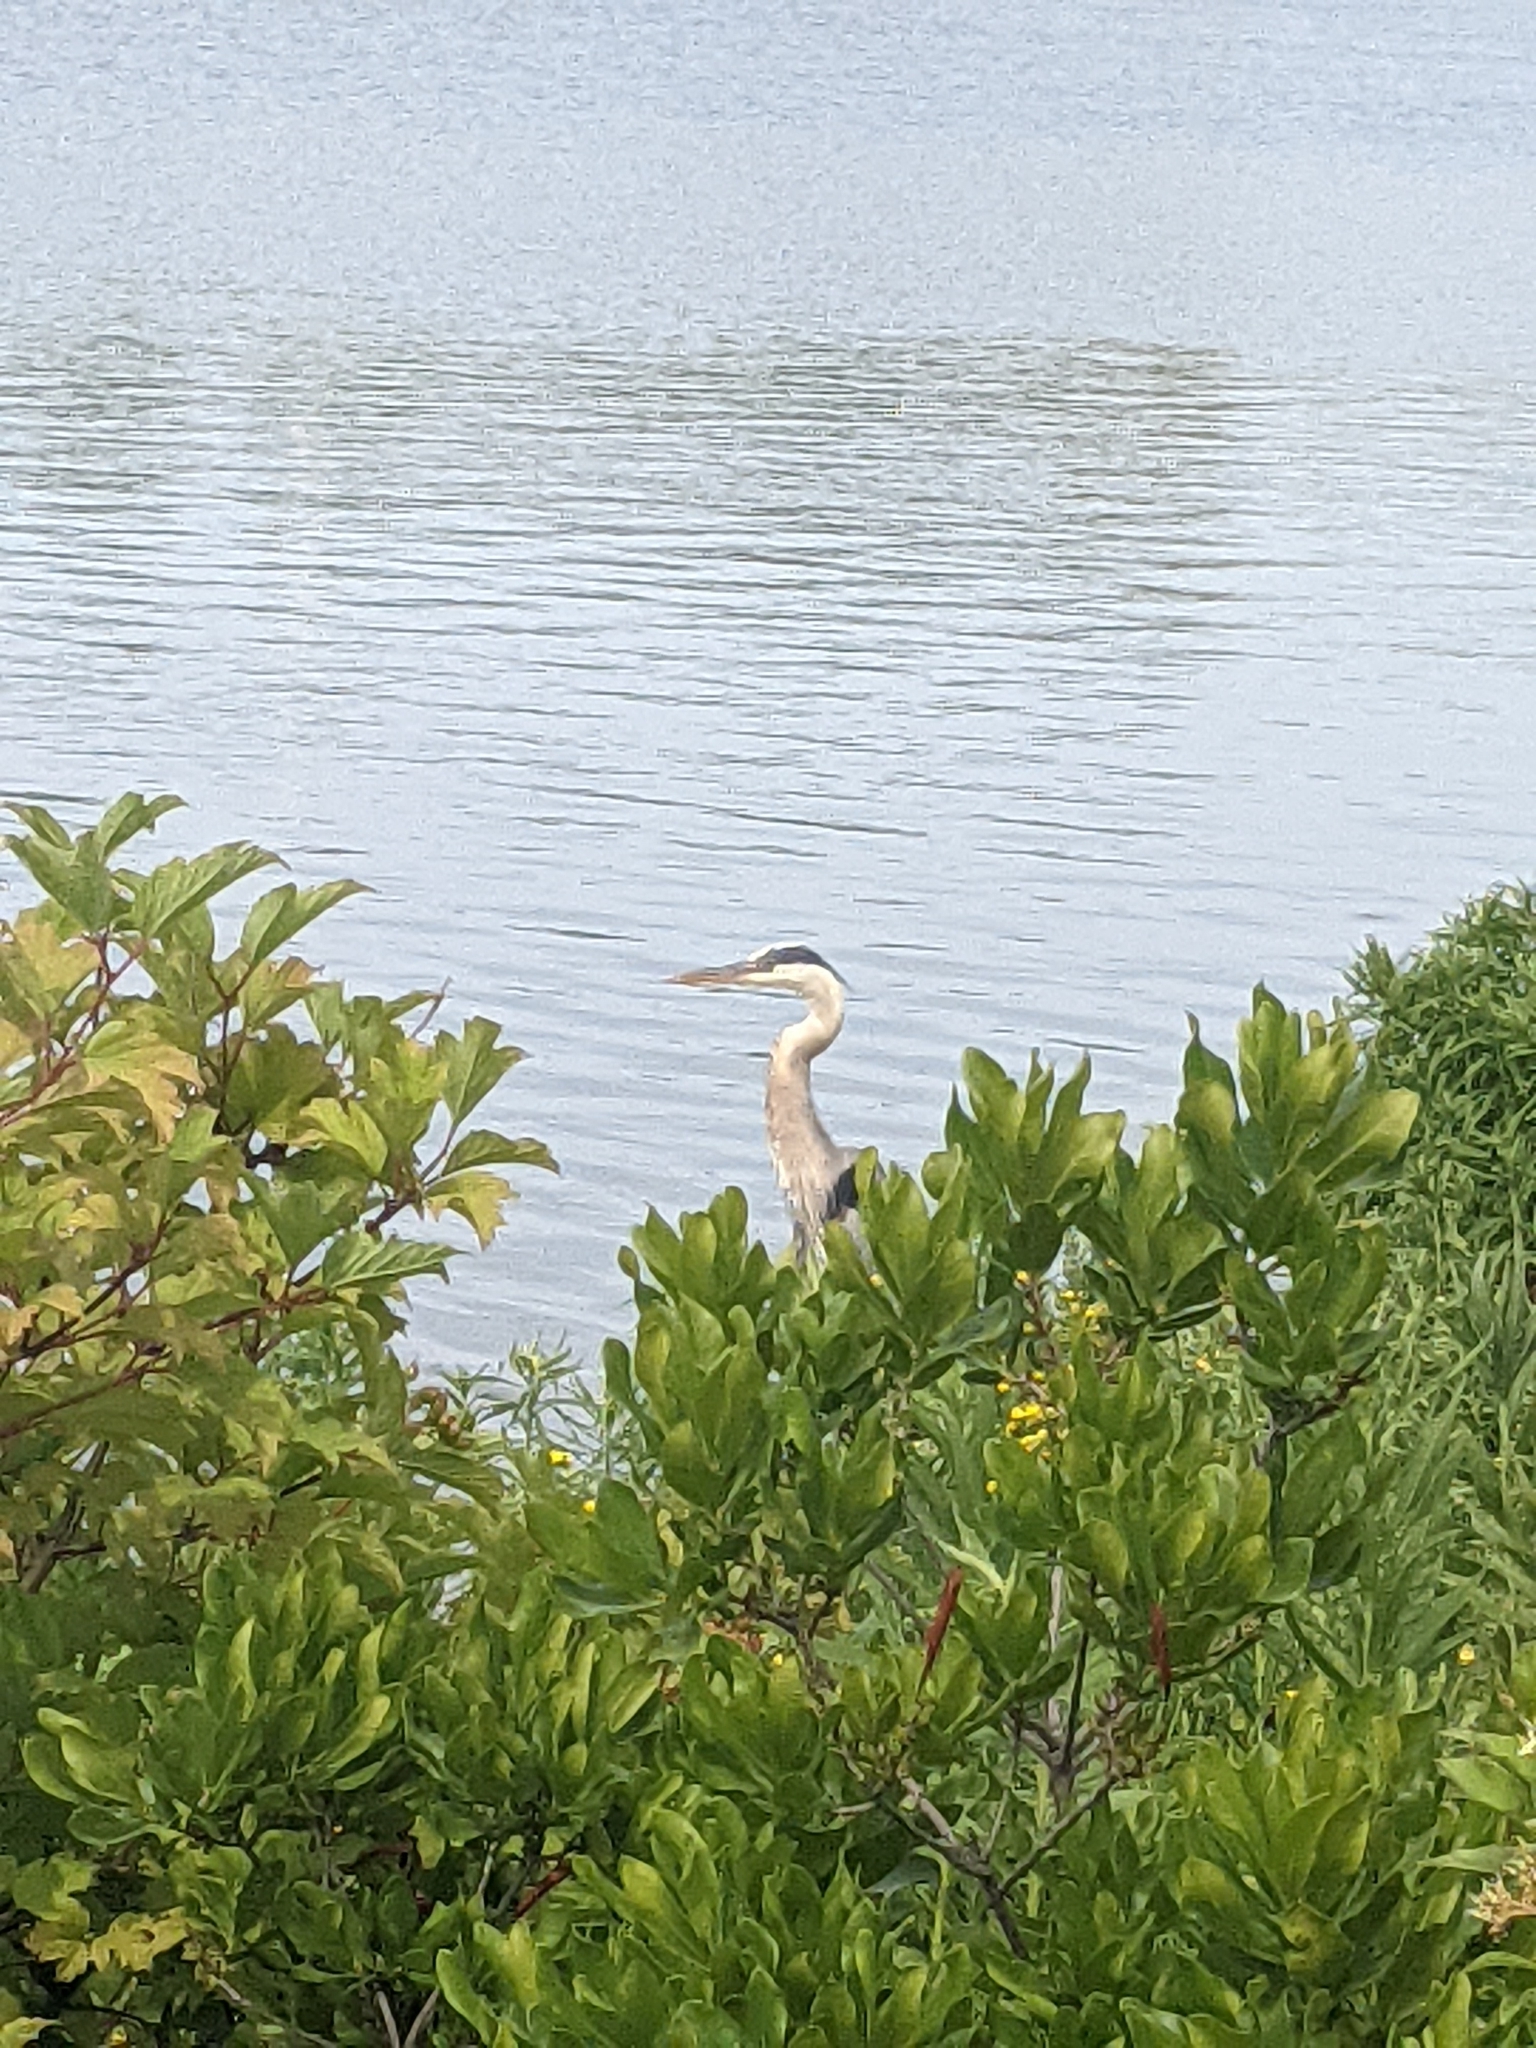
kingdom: Animalia
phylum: Chordata
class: Aves
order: Pelecaniformes
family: Ardeidae
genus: Ardea
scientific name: Ardea herodias
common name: Great blue heron
